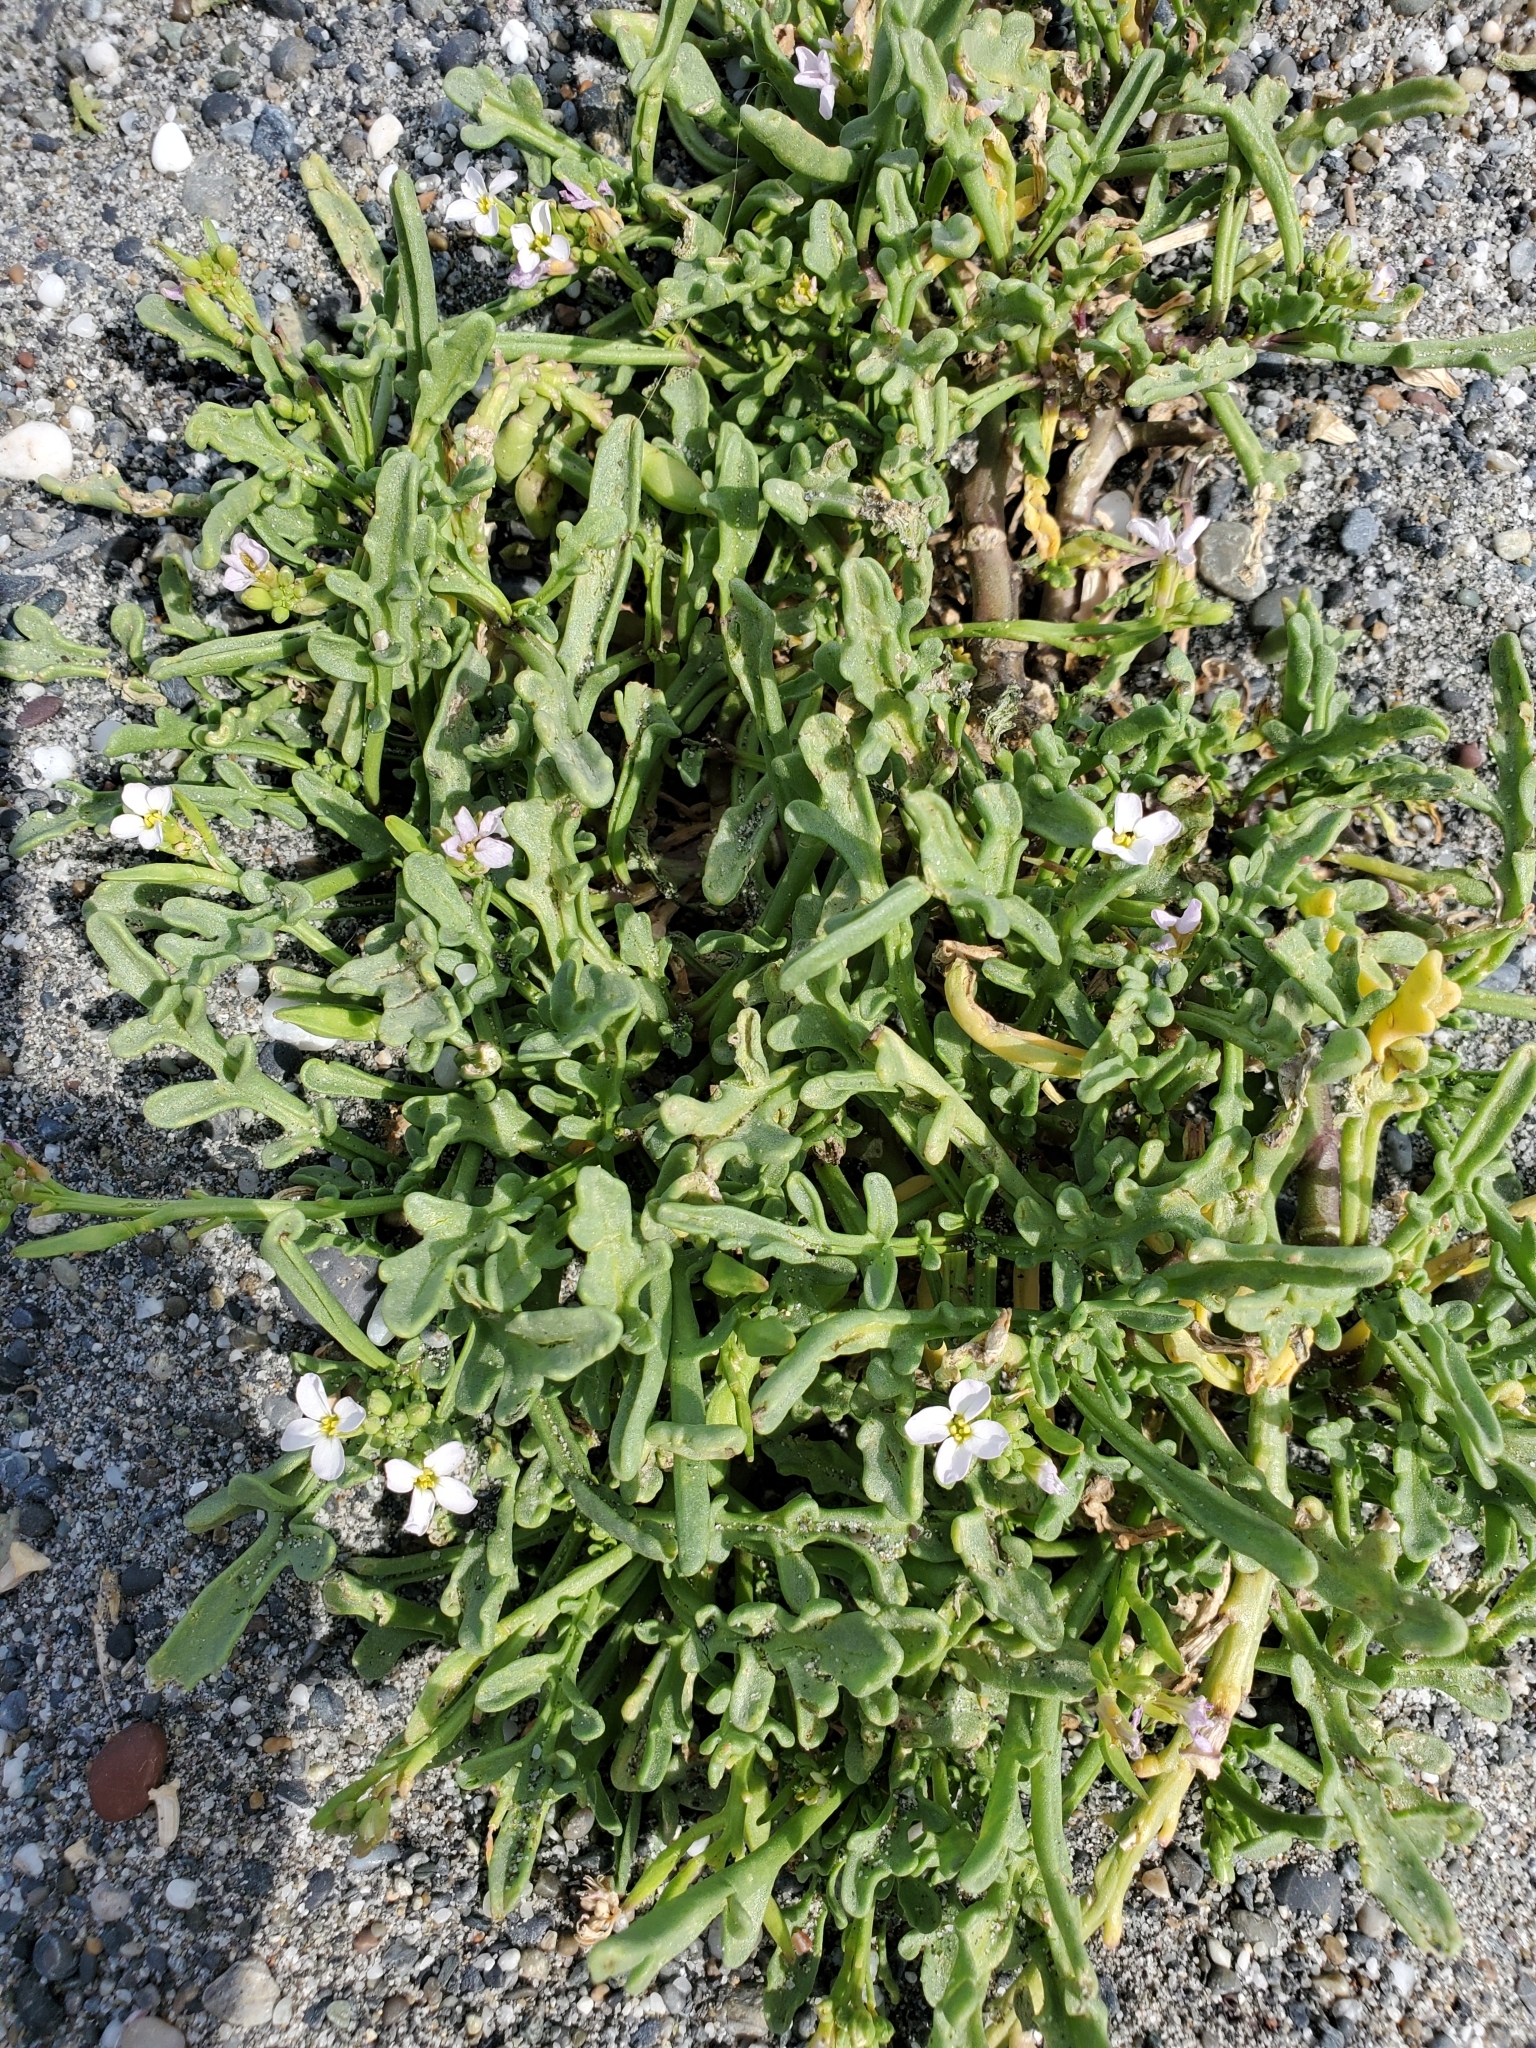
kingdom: Plantae
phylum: Tracheophyta
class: Magnoliopsida
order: Brassicales
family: Brassicaceae
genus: Cakile
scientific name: Cakile maritima
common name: Sea rocket
